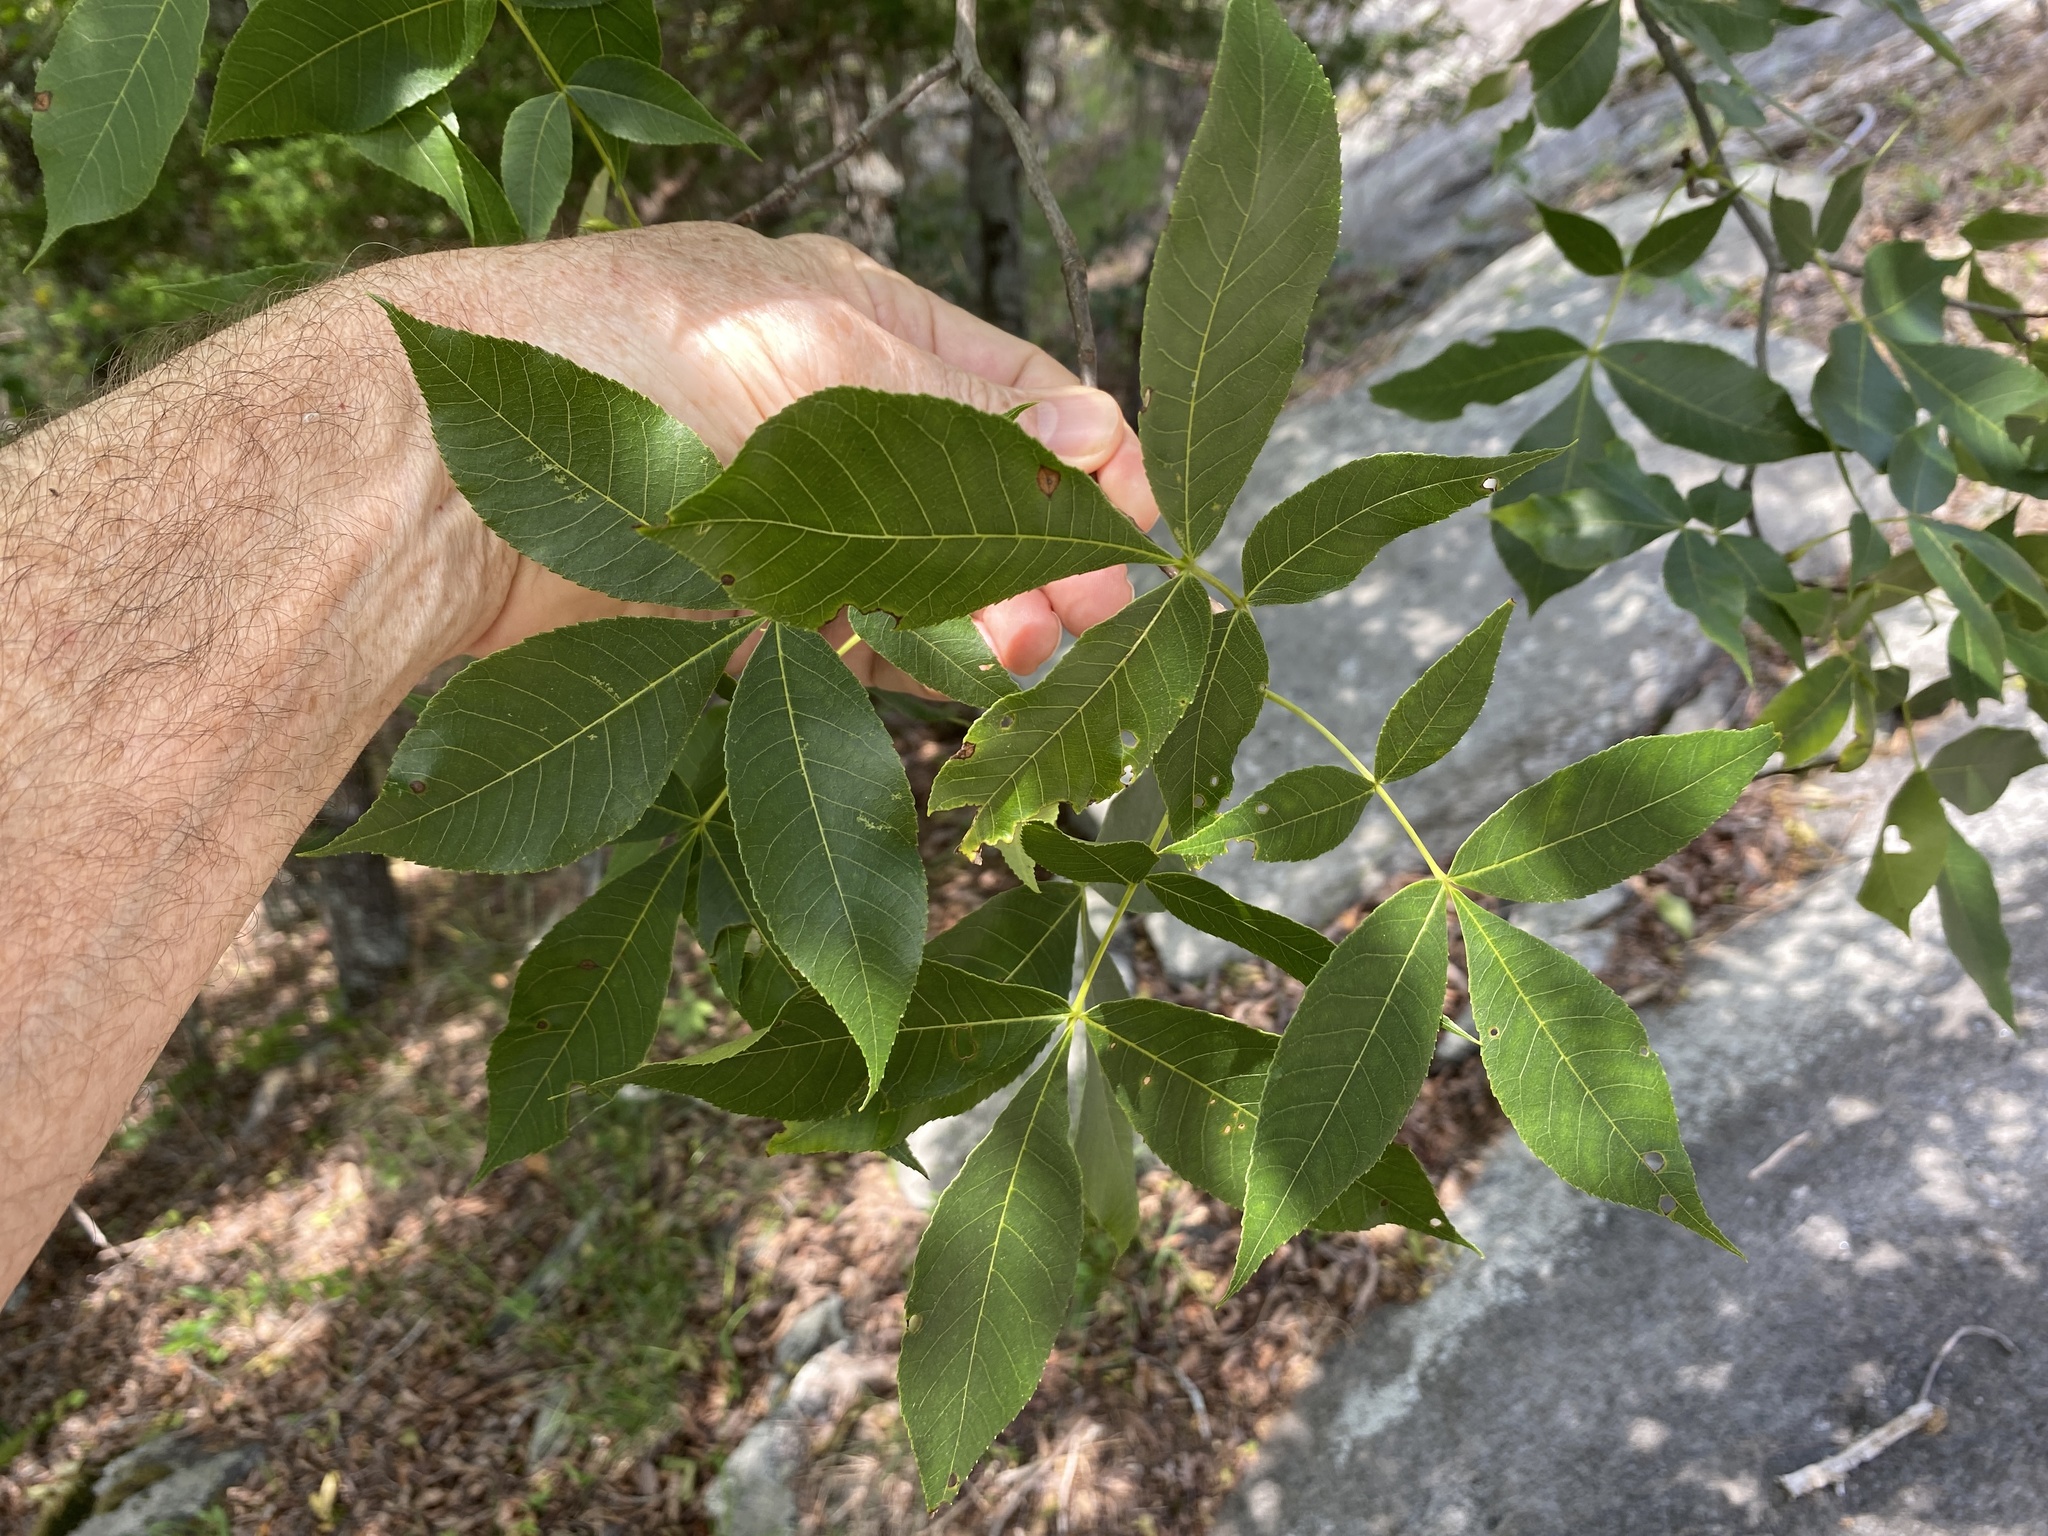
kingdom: Plantae
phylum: Tracheophyta
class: Magnoliopsida
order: Fagales
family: Juglandaceae
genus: Carya
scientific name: Carya glabra
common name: Pignut hickory
